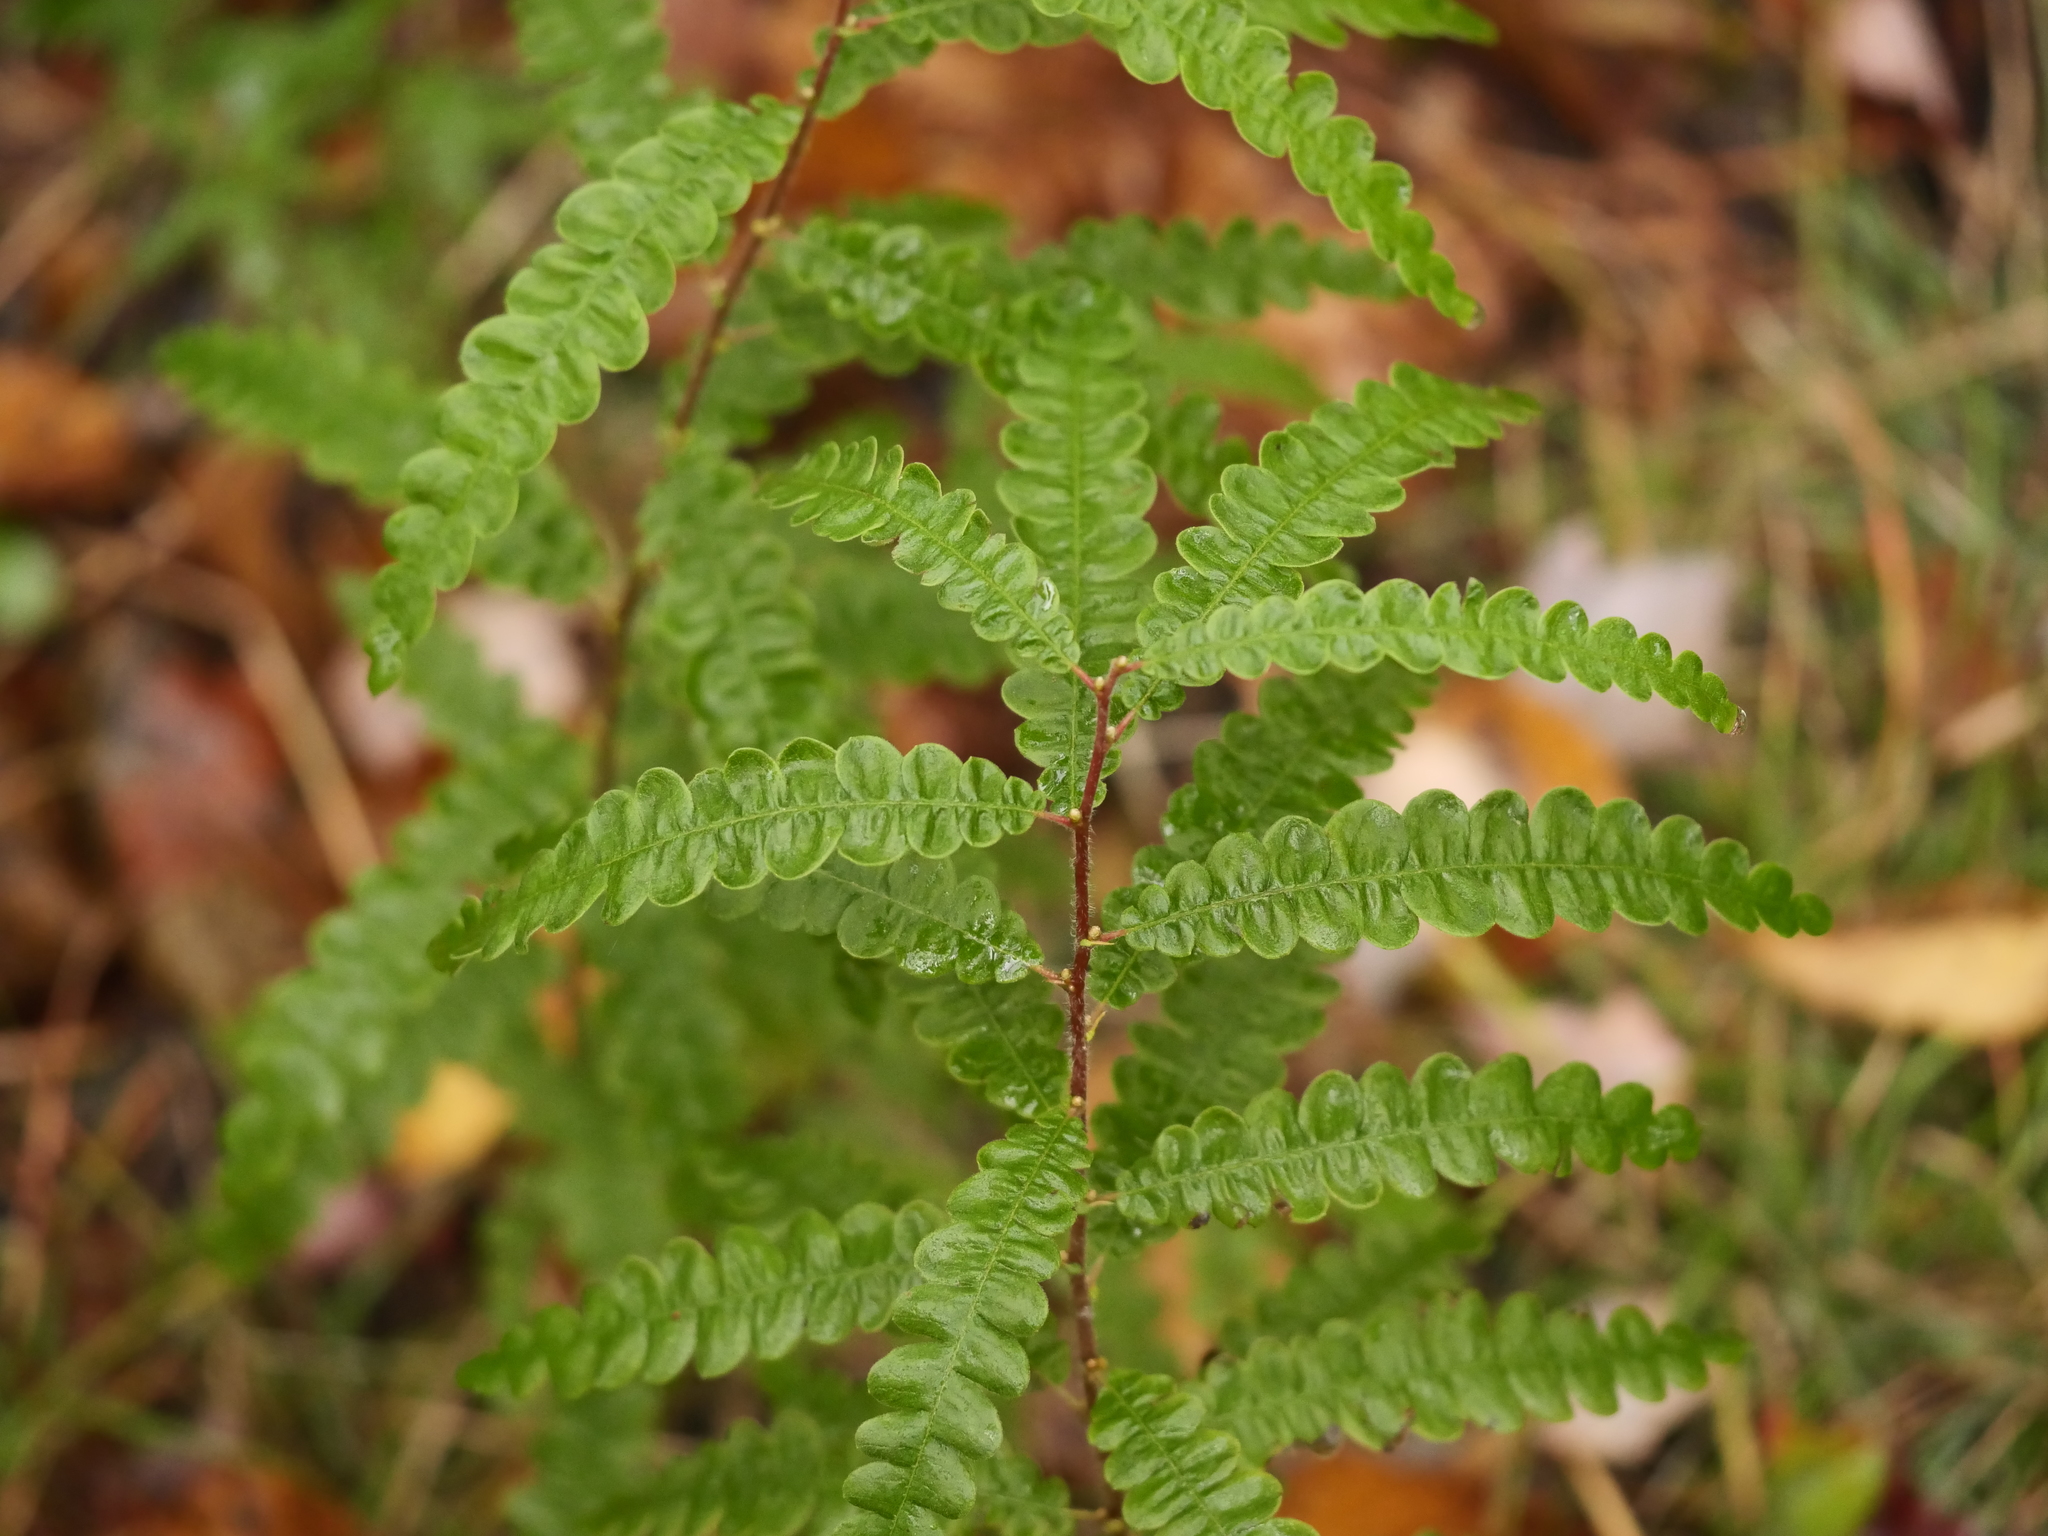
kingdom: Plantae
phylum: Tracheophyta
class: Magnoliopsida
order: Fagales
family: Myricaceae
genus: Comptonia
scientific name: Comptonia peregrina
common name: Sweet-fern
